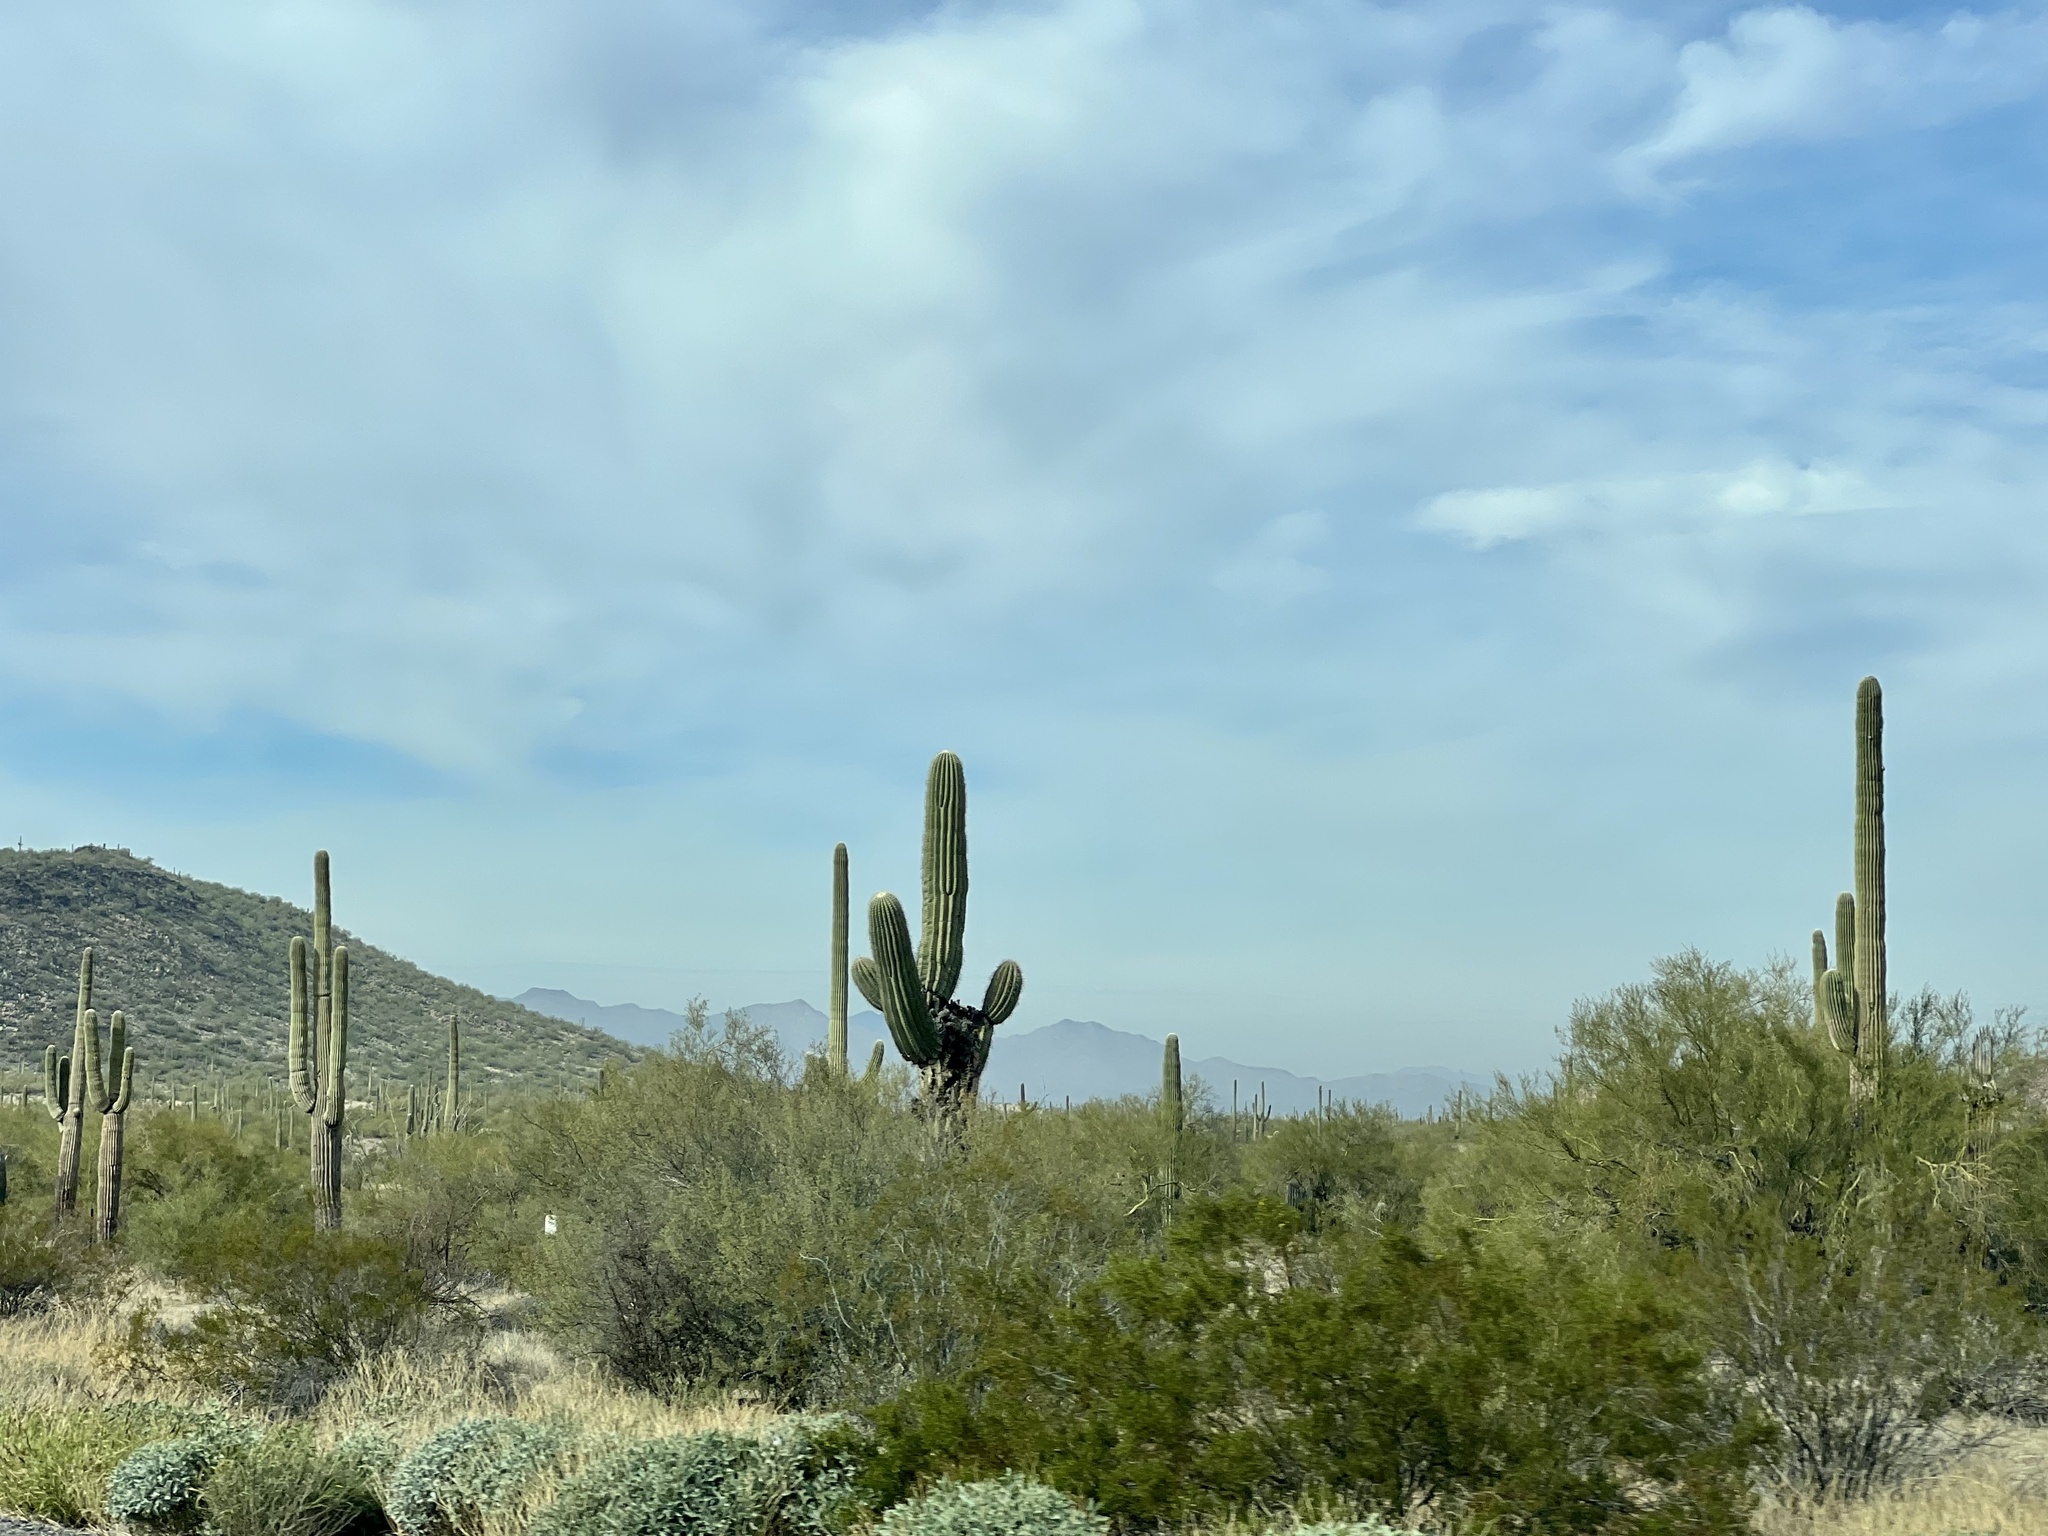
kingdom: Plantae
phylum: Tracheophyta
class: Magnoliopsida
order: Caryophyllales
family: Cactaceae
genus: Carnegiea
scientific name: Carnegiea gigantea
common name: Saguaro
